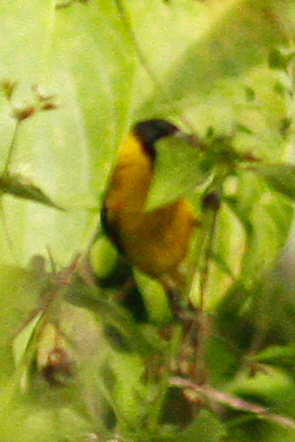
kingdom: Animalia
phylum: Chordata
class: Aves
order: Passeriformes
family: Fringillidae
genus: Spinus
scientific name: Spinus siemiradzkii
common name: Saffron siskin
